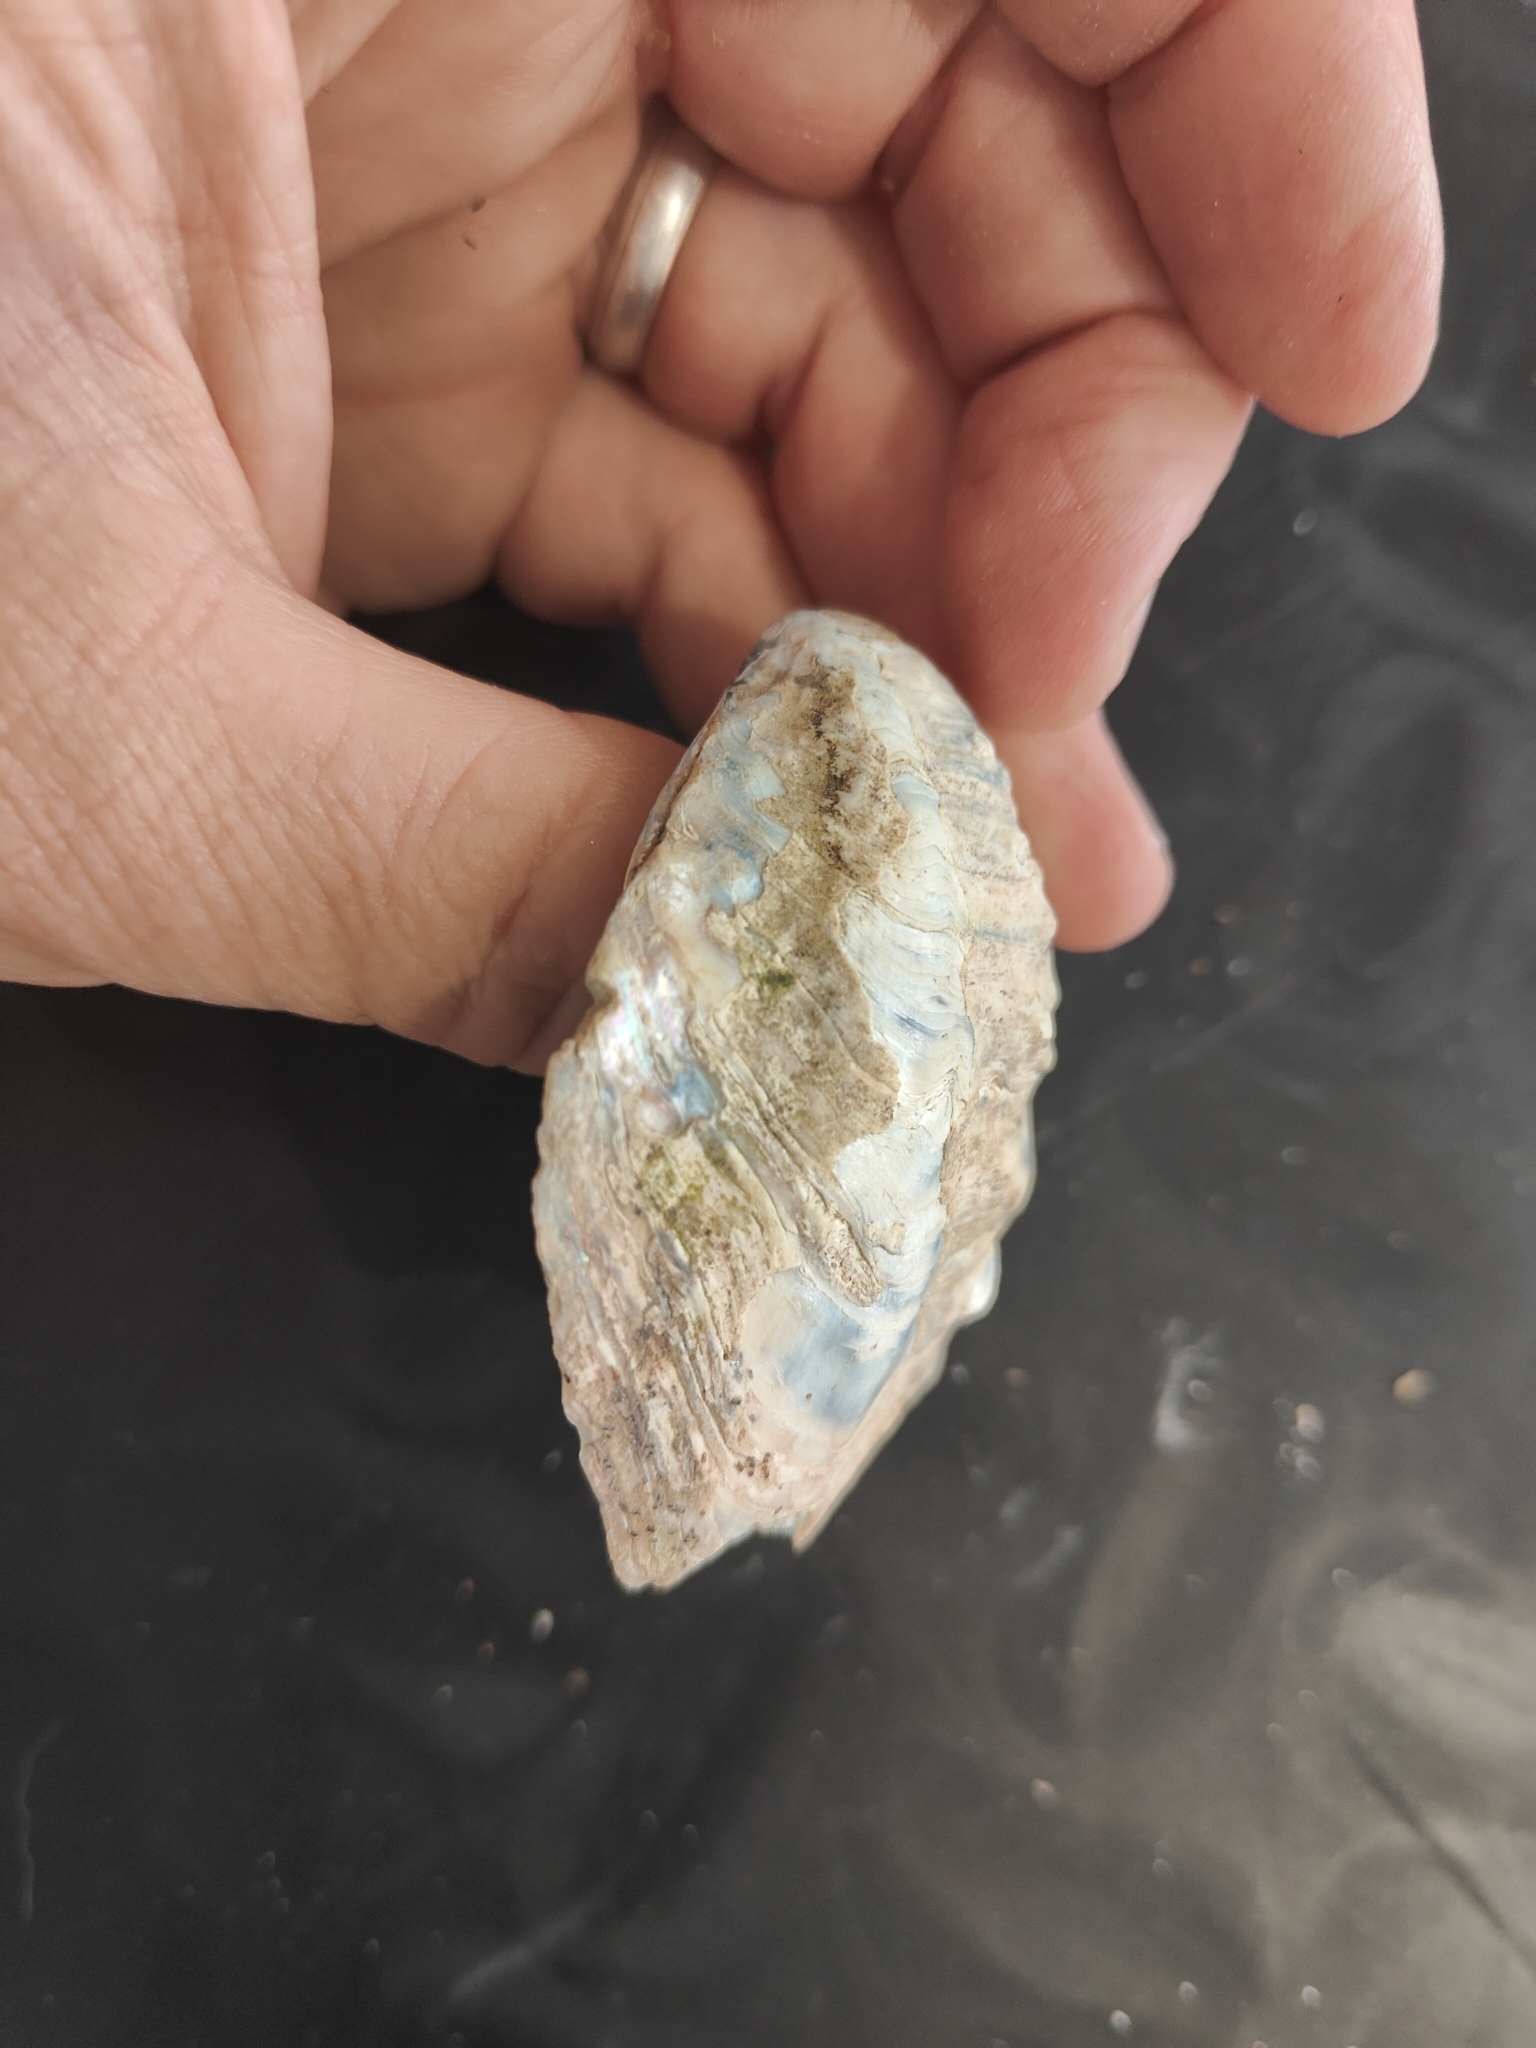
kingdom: Animalia
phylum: Mollusca
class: Bivalvia
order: Unionida
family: Unionidae
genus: Quadrula
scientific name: Quadrula fragosa
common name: Winged mapleleaf
